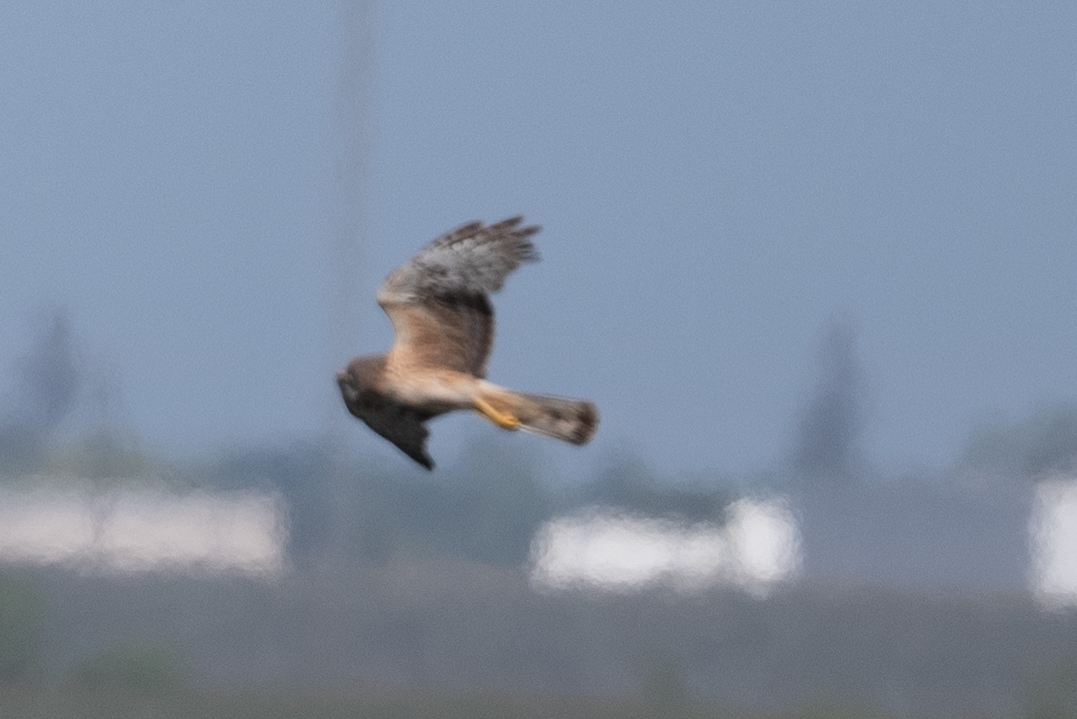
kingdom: Animalia
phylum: Chordata
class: Aves
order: Accipitriformes
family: Accipitridae
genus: Circus
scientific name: Circus cyaneus
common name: Hen harrier
